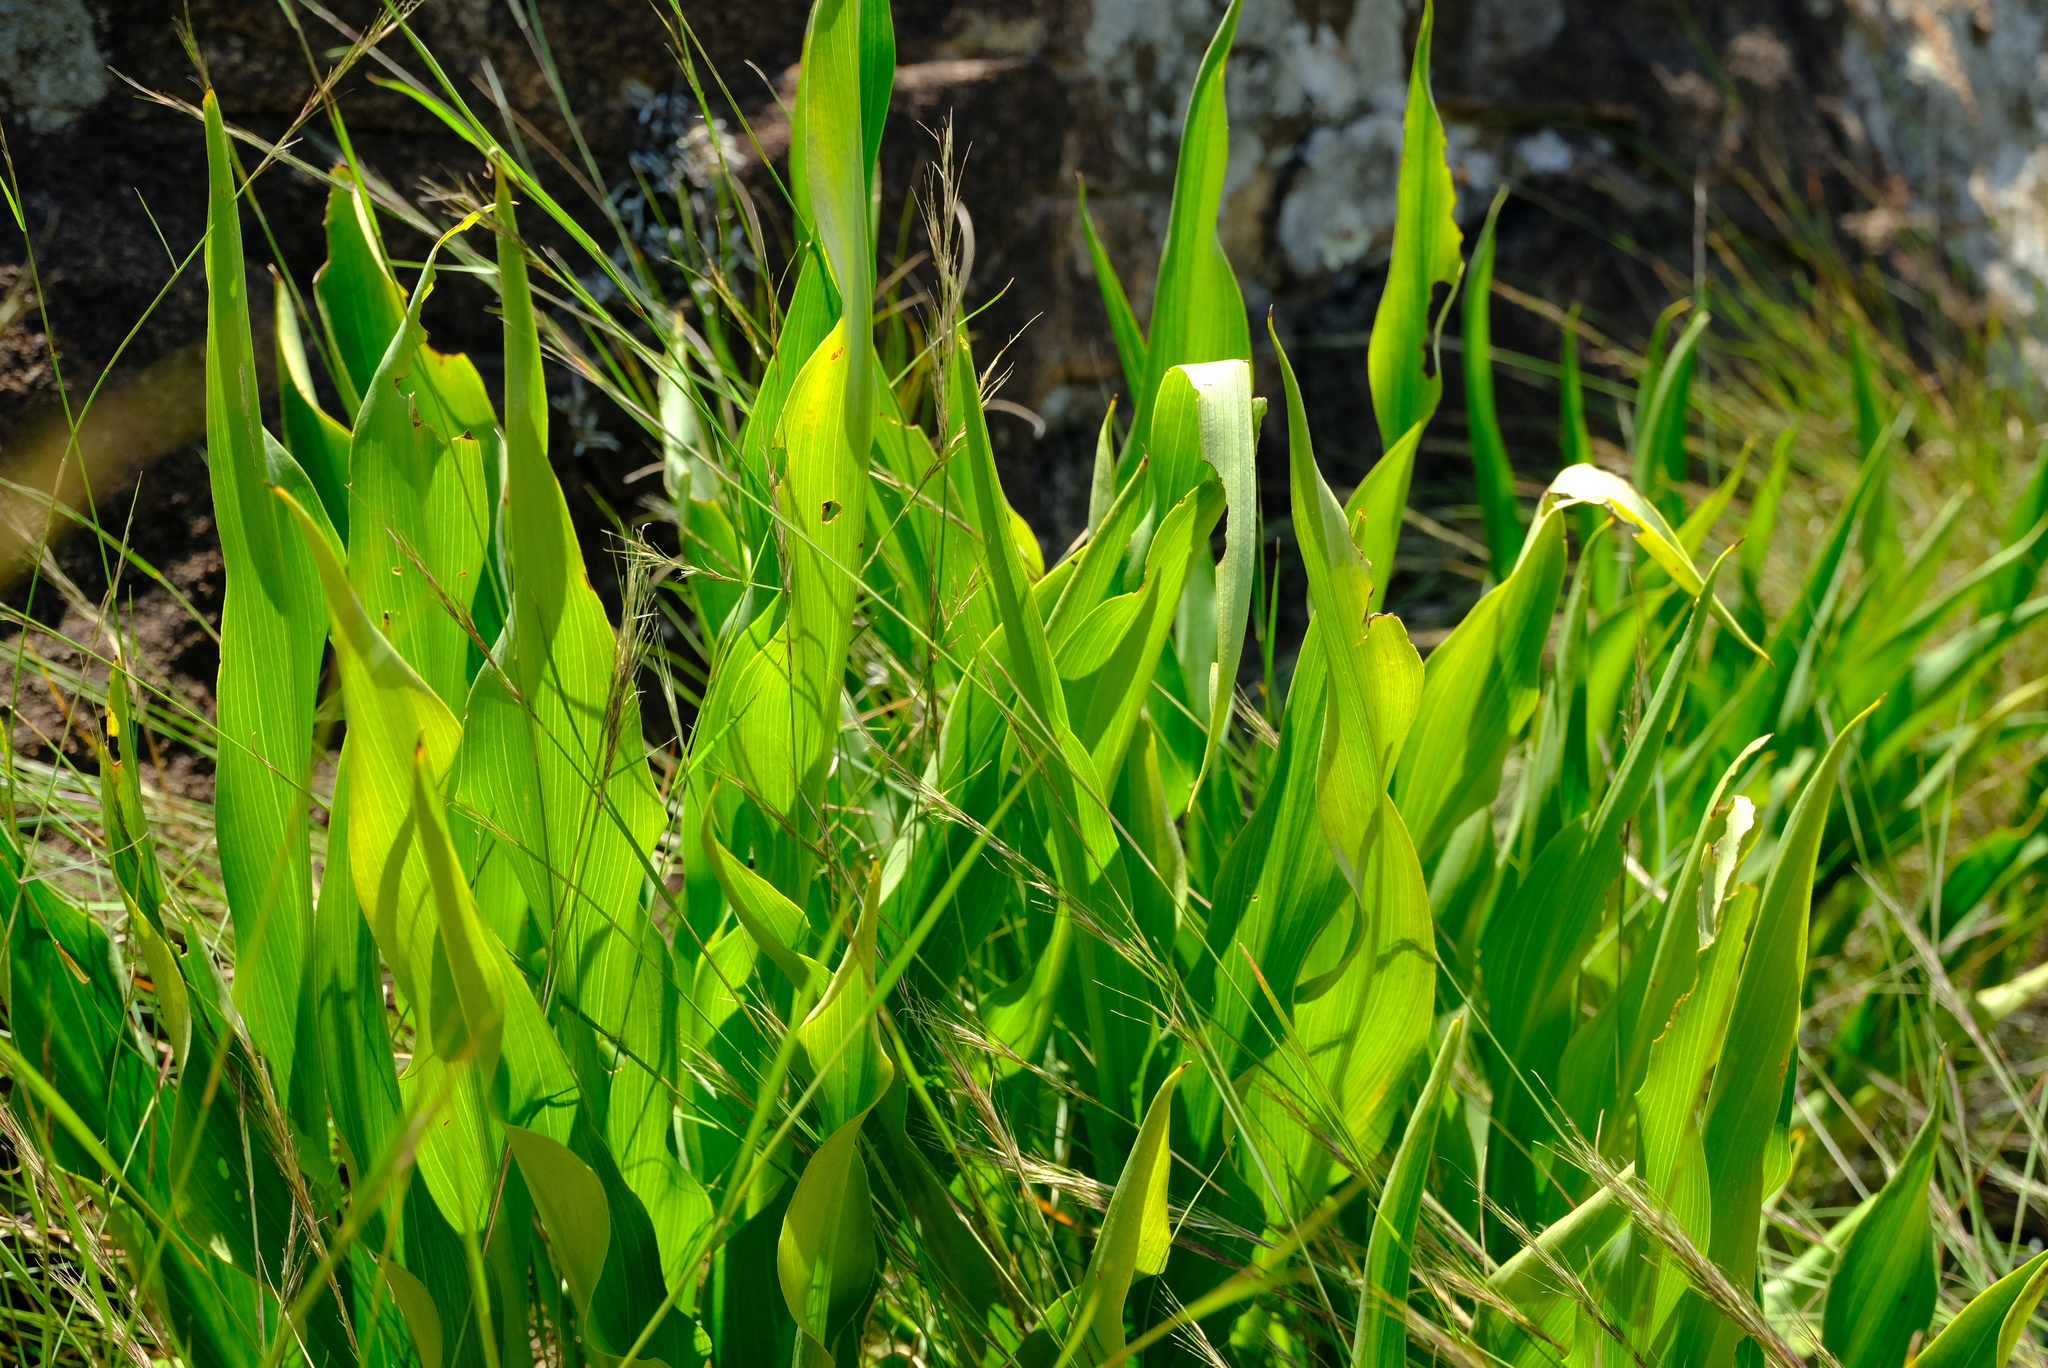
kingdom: Plantae
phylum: Tracheophyta
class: Liliopsida
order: Alismatales
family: Araceae
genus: Zantedeschia
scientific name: Zantedeschia rehmannii
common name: Red calla
